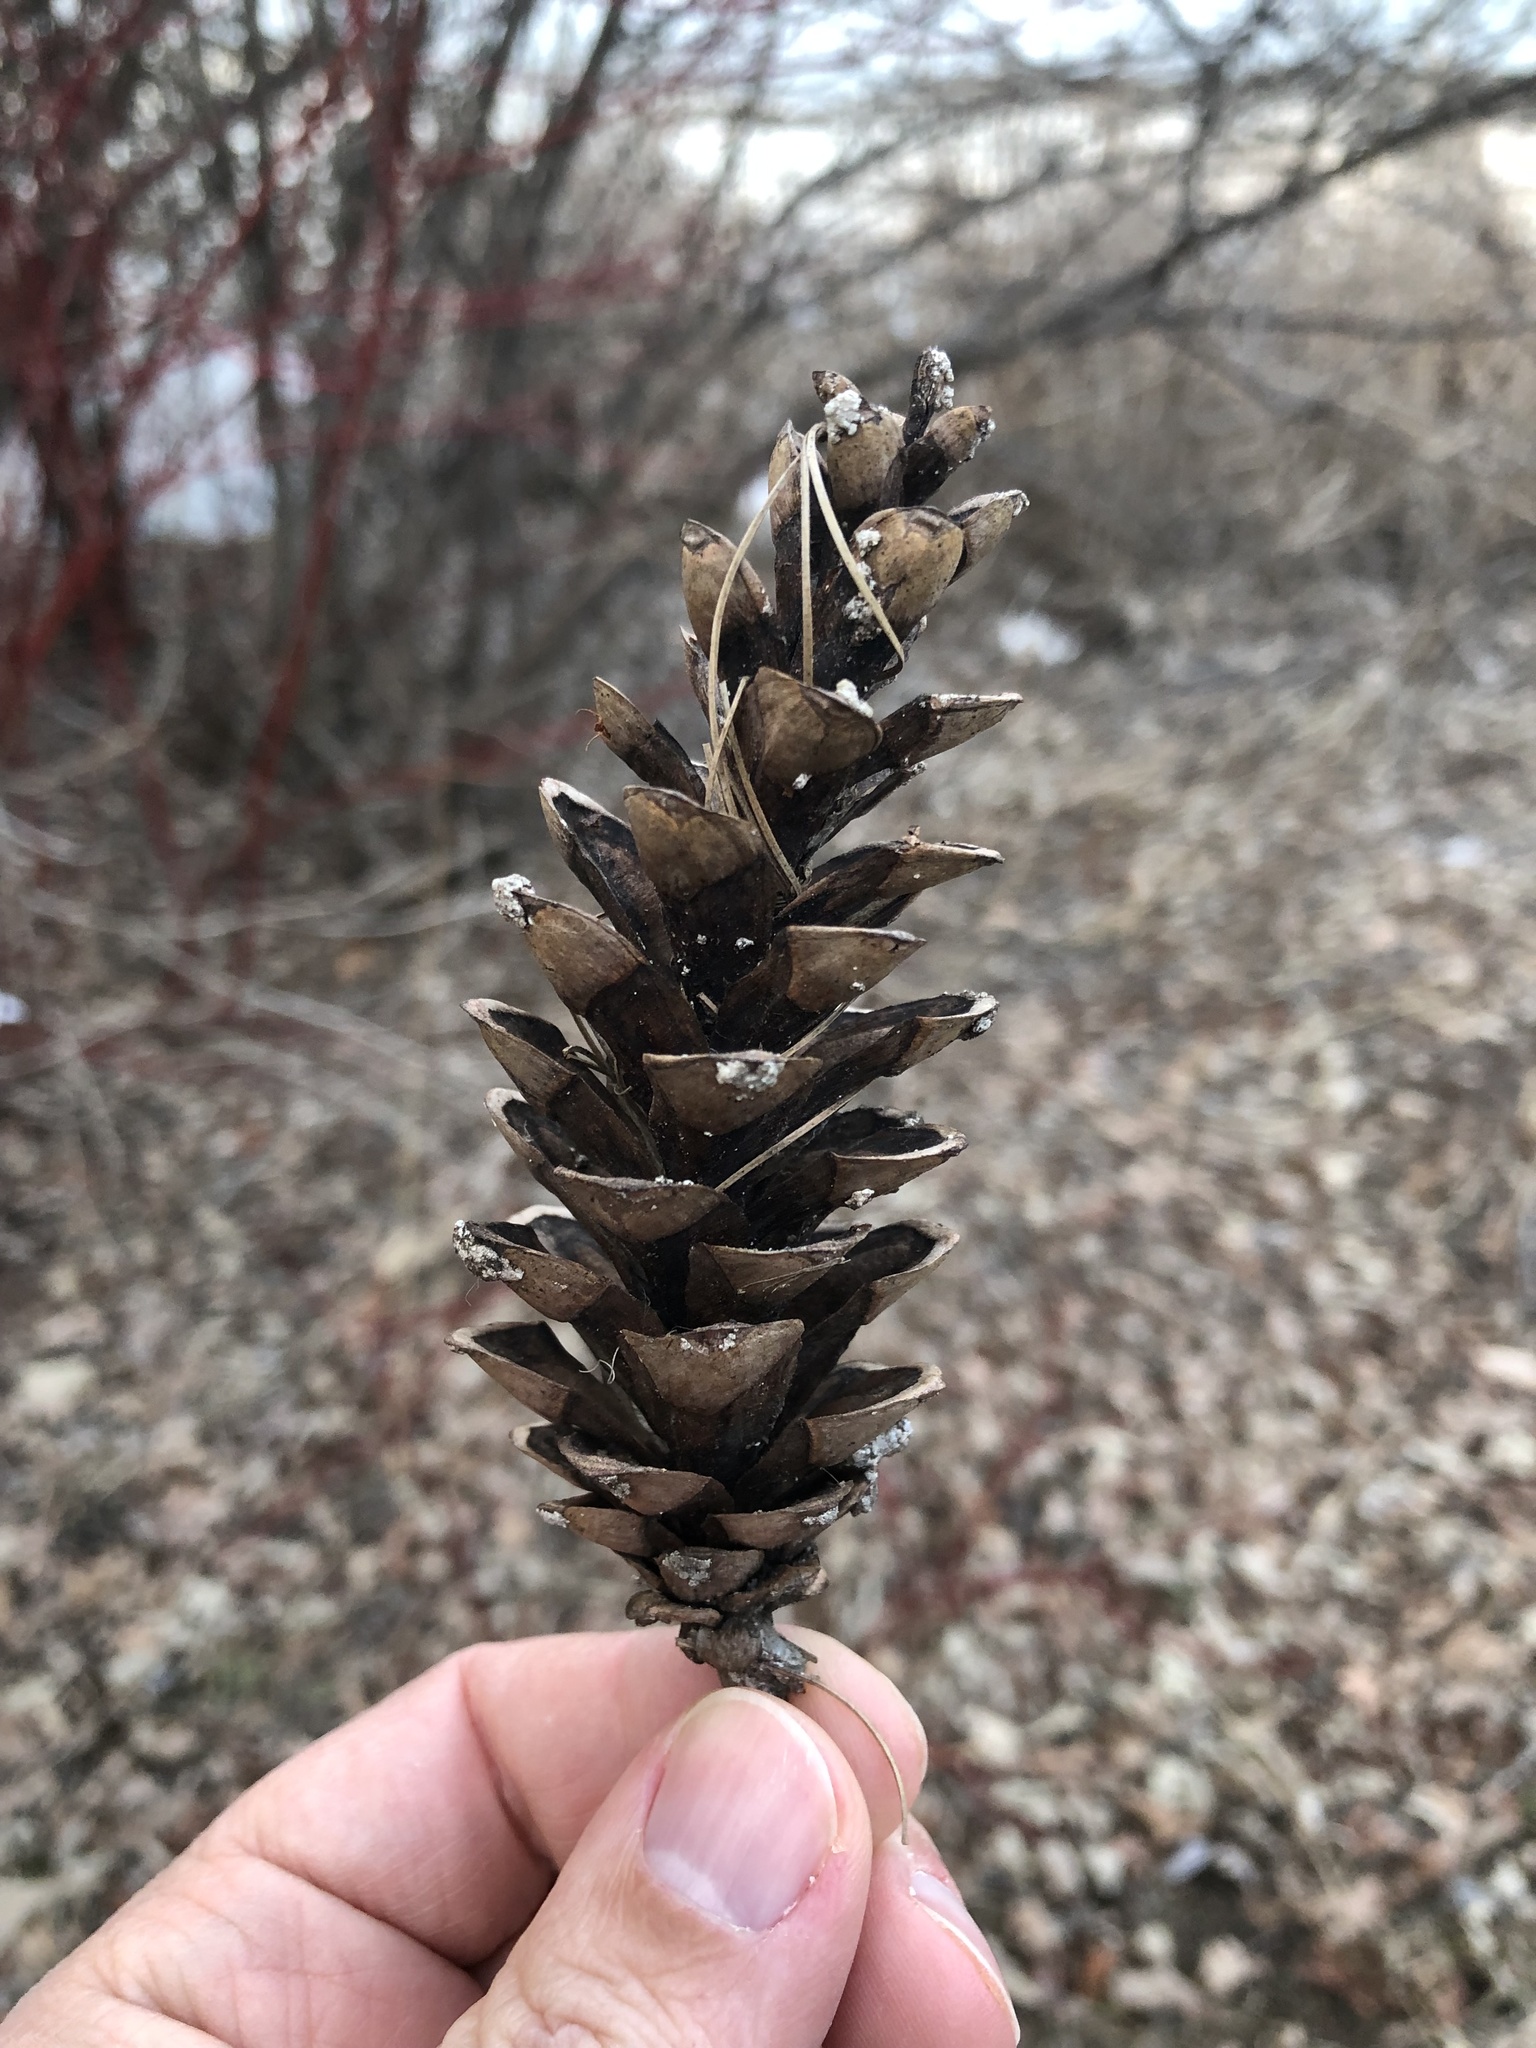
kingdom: Plantae
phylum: Tracheophyta
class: Pinopsida
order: Pinales
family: Pinaceae
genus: Pinus
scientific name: Pinus strobus
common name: Weymouth pine
